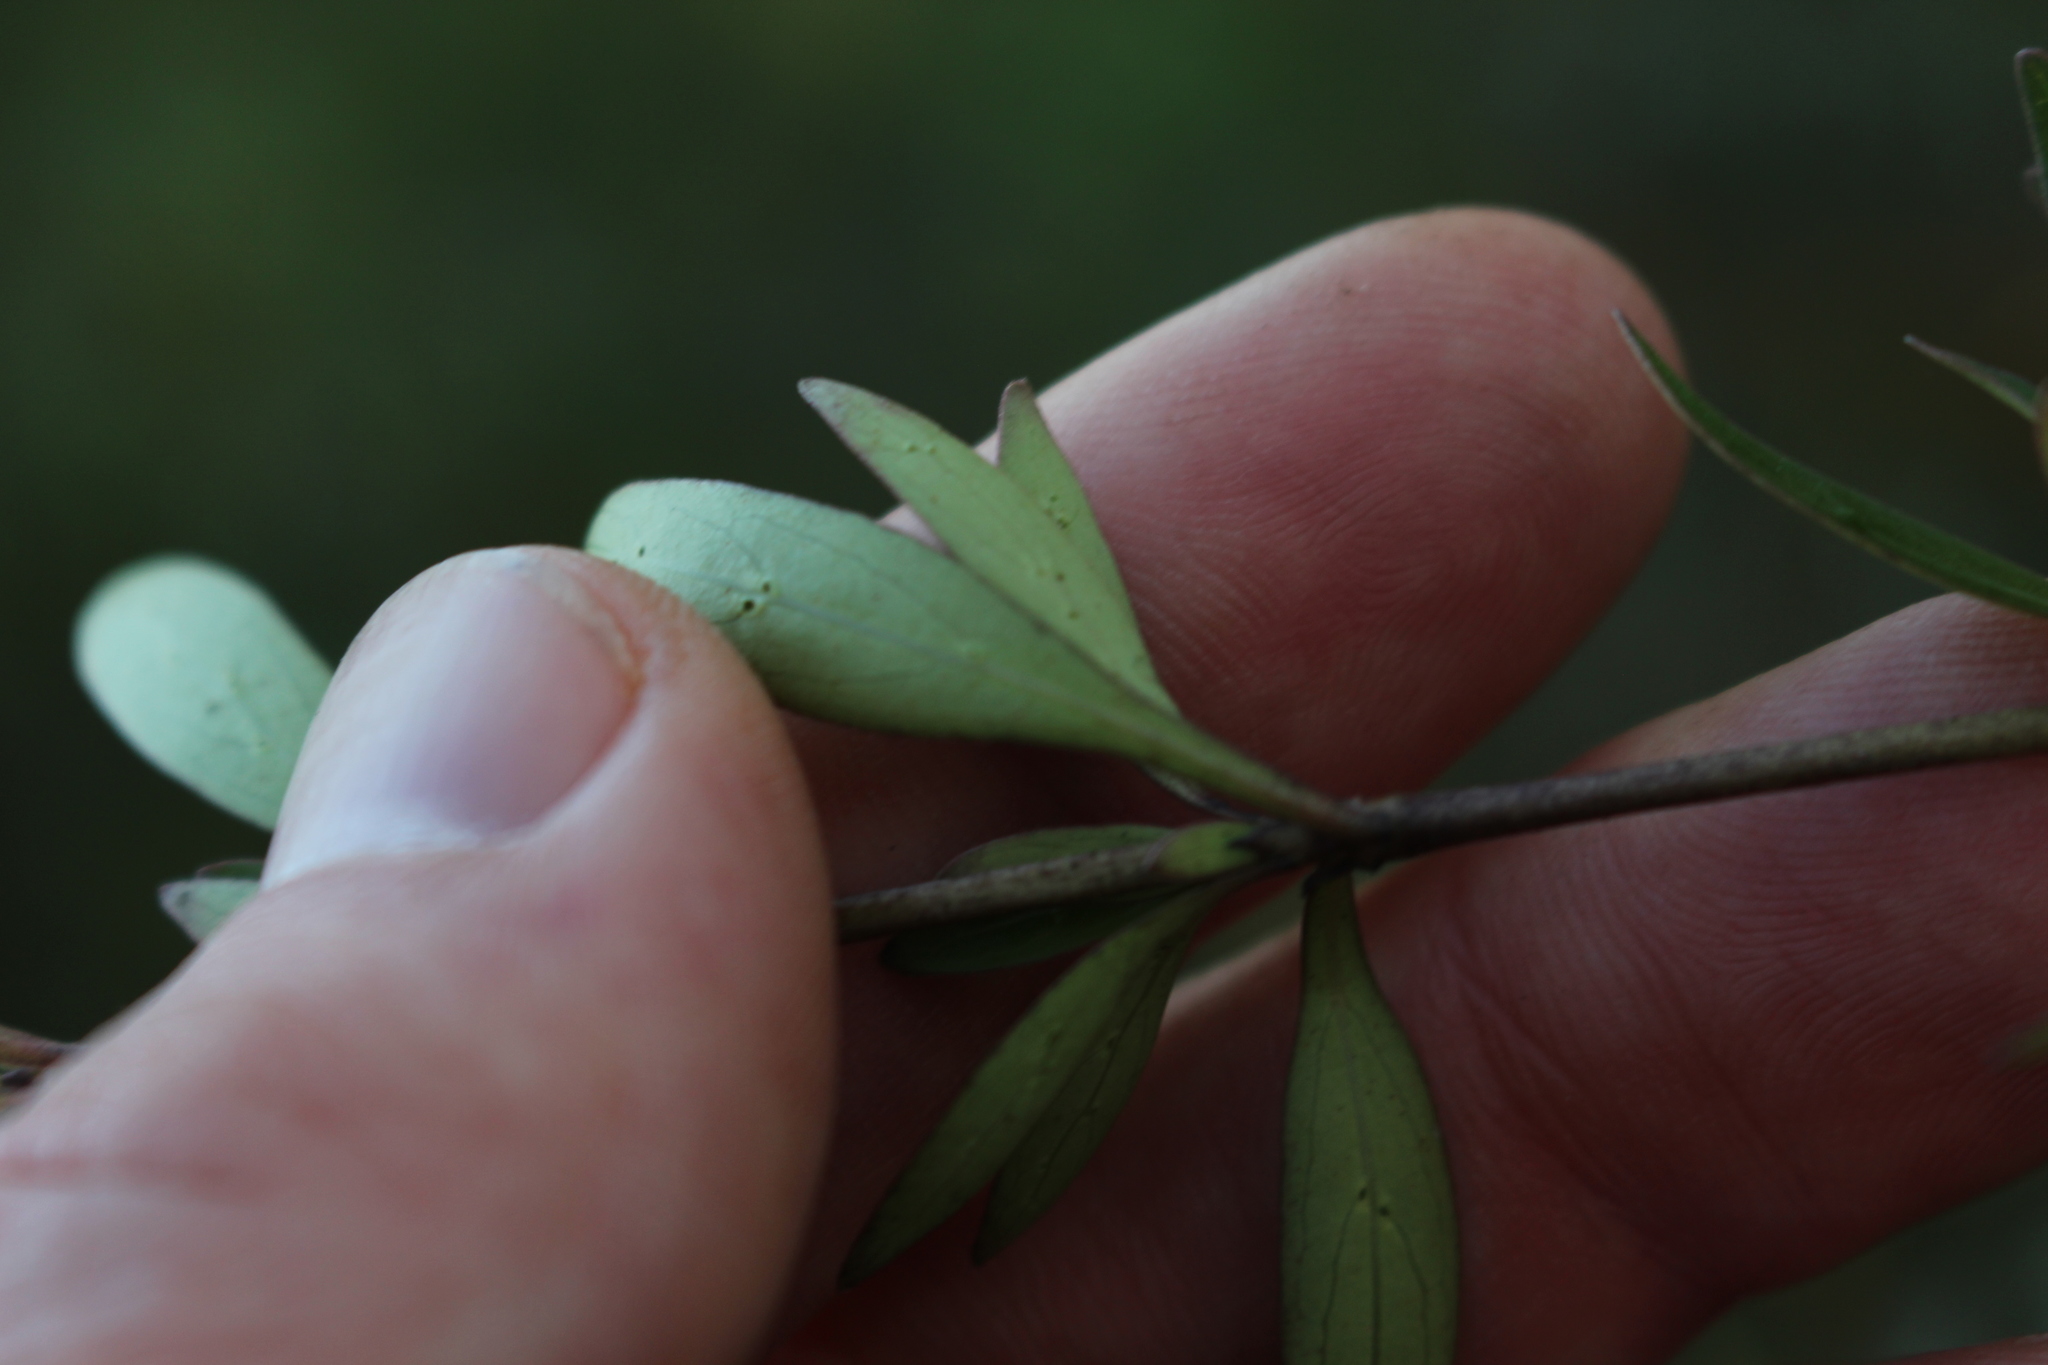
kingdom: Plantae
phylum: Tracheophyta
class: Magnoliopsida
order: Gentianales
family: Rubiaceae
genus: Coprosma
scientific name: Coprosma cunninghamii
